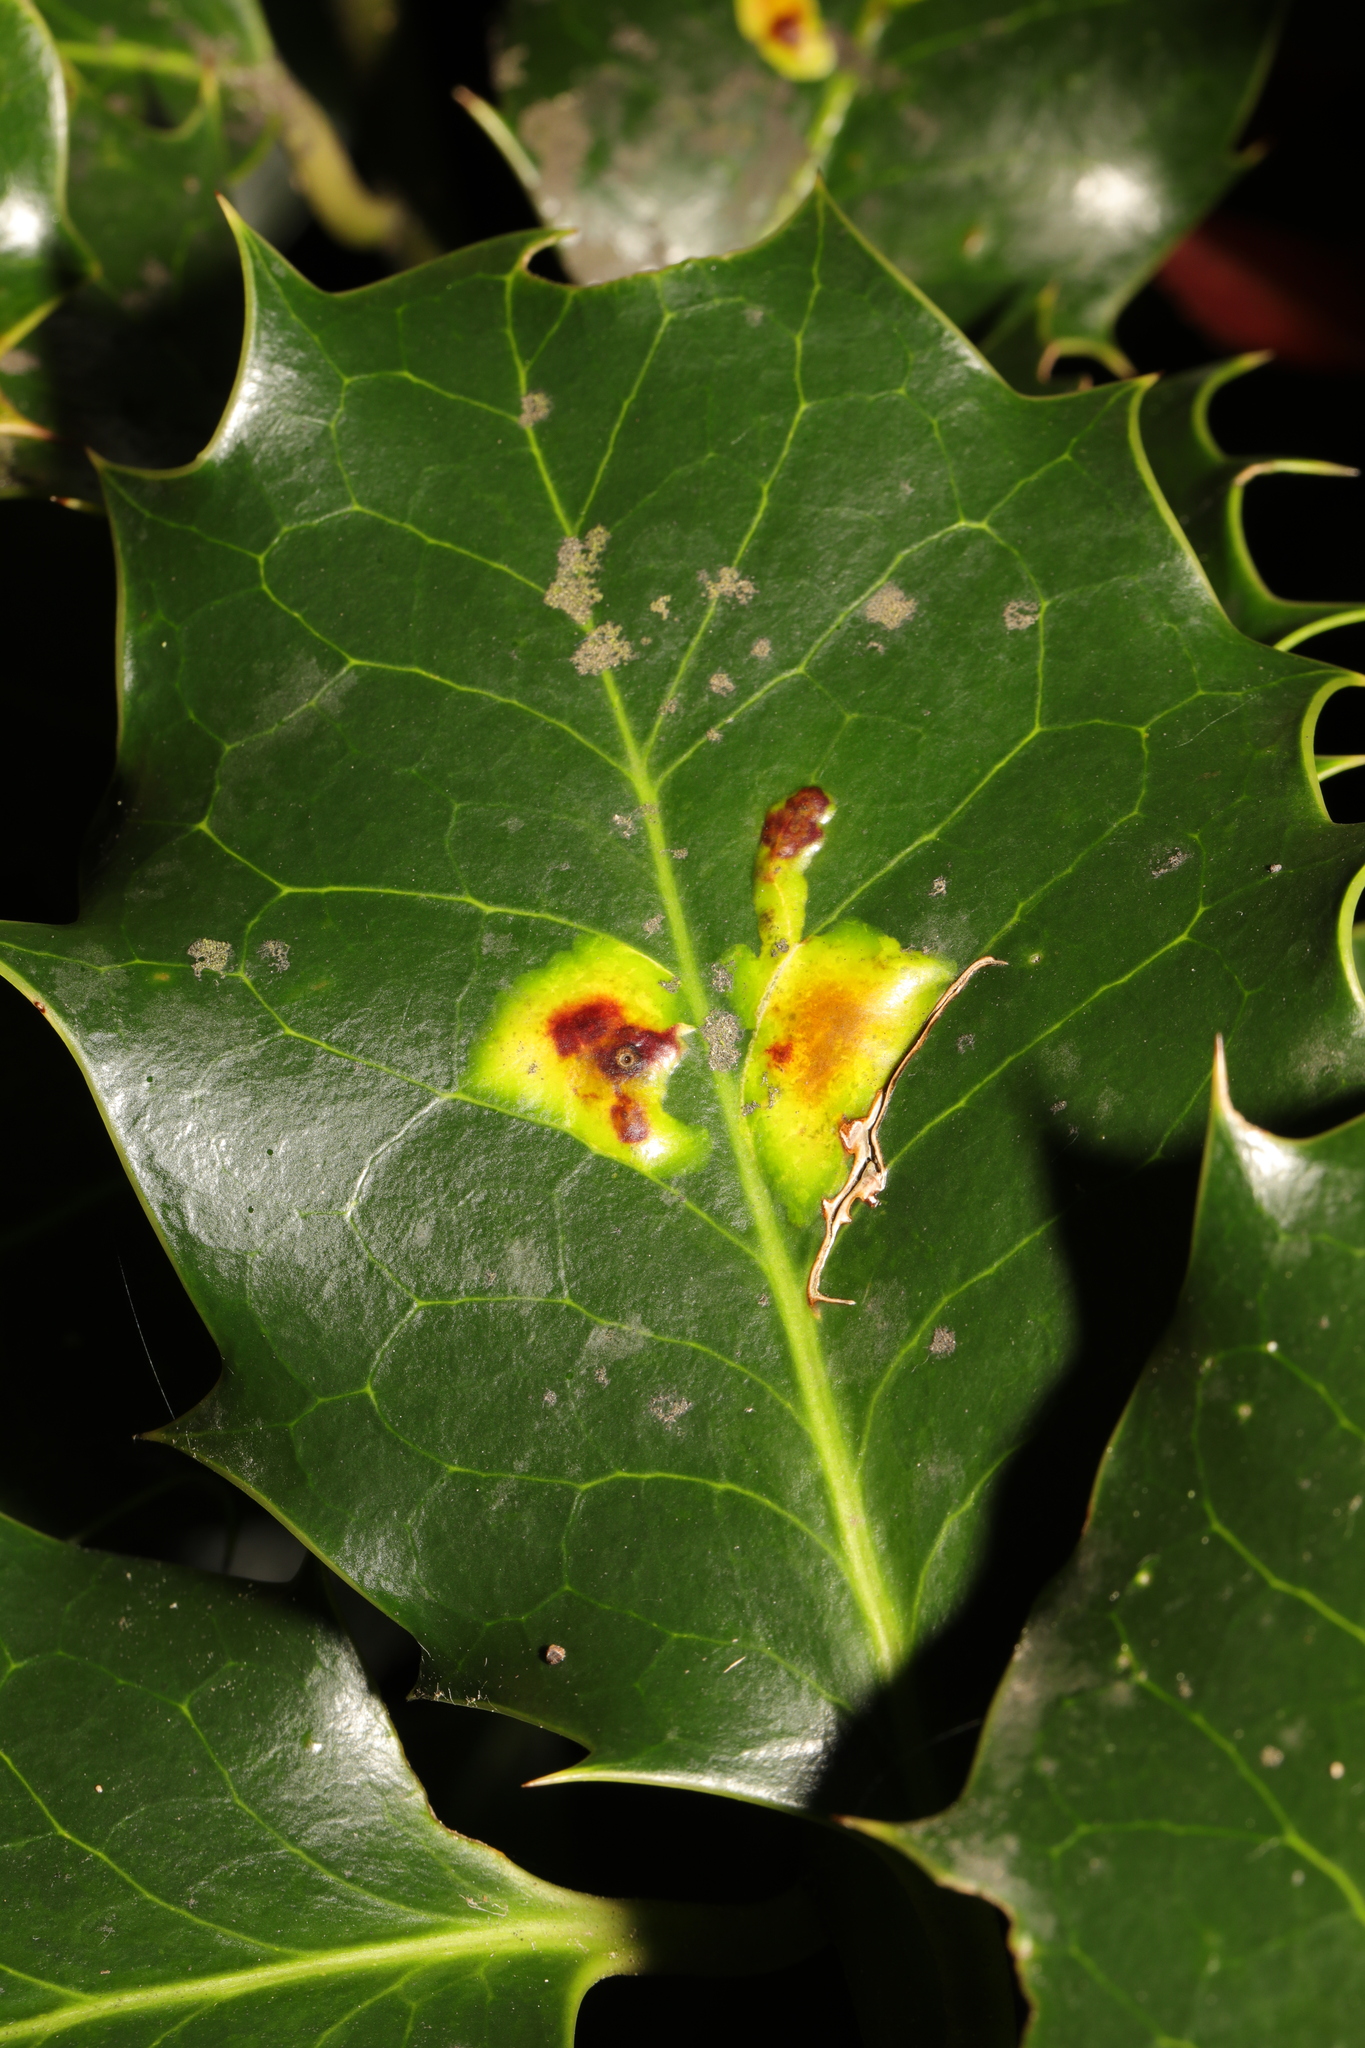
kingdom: Animalia
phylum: Arthropoda
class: Insecta
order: Diptera
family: Agromyzidae
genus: Phytomyza
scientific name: Phytomyza ilicis
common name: Holly leafminer
